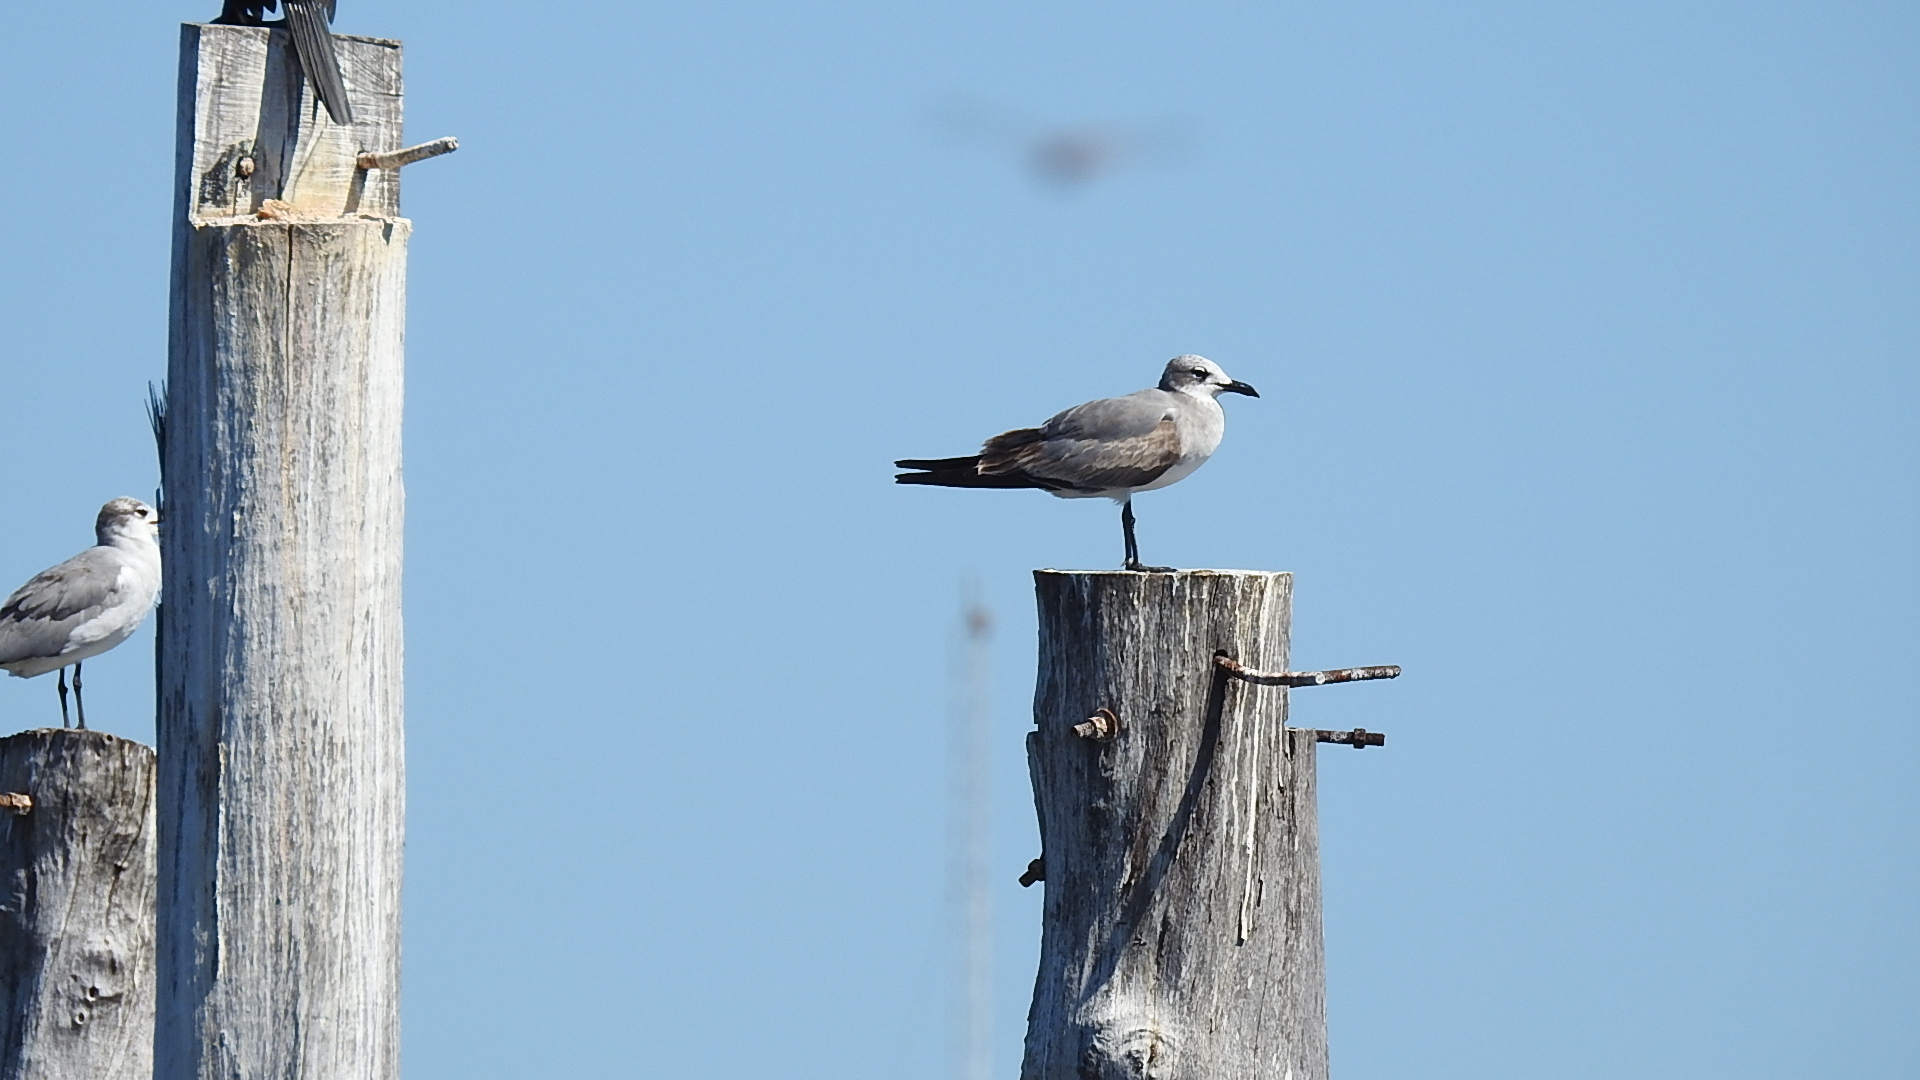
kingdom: Animalia
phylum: Chordata
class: Aves
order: Charadriiformes
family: Laridae
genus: Leucophaeus
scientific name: Leucophaeus atricilla
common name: Laughing gull
